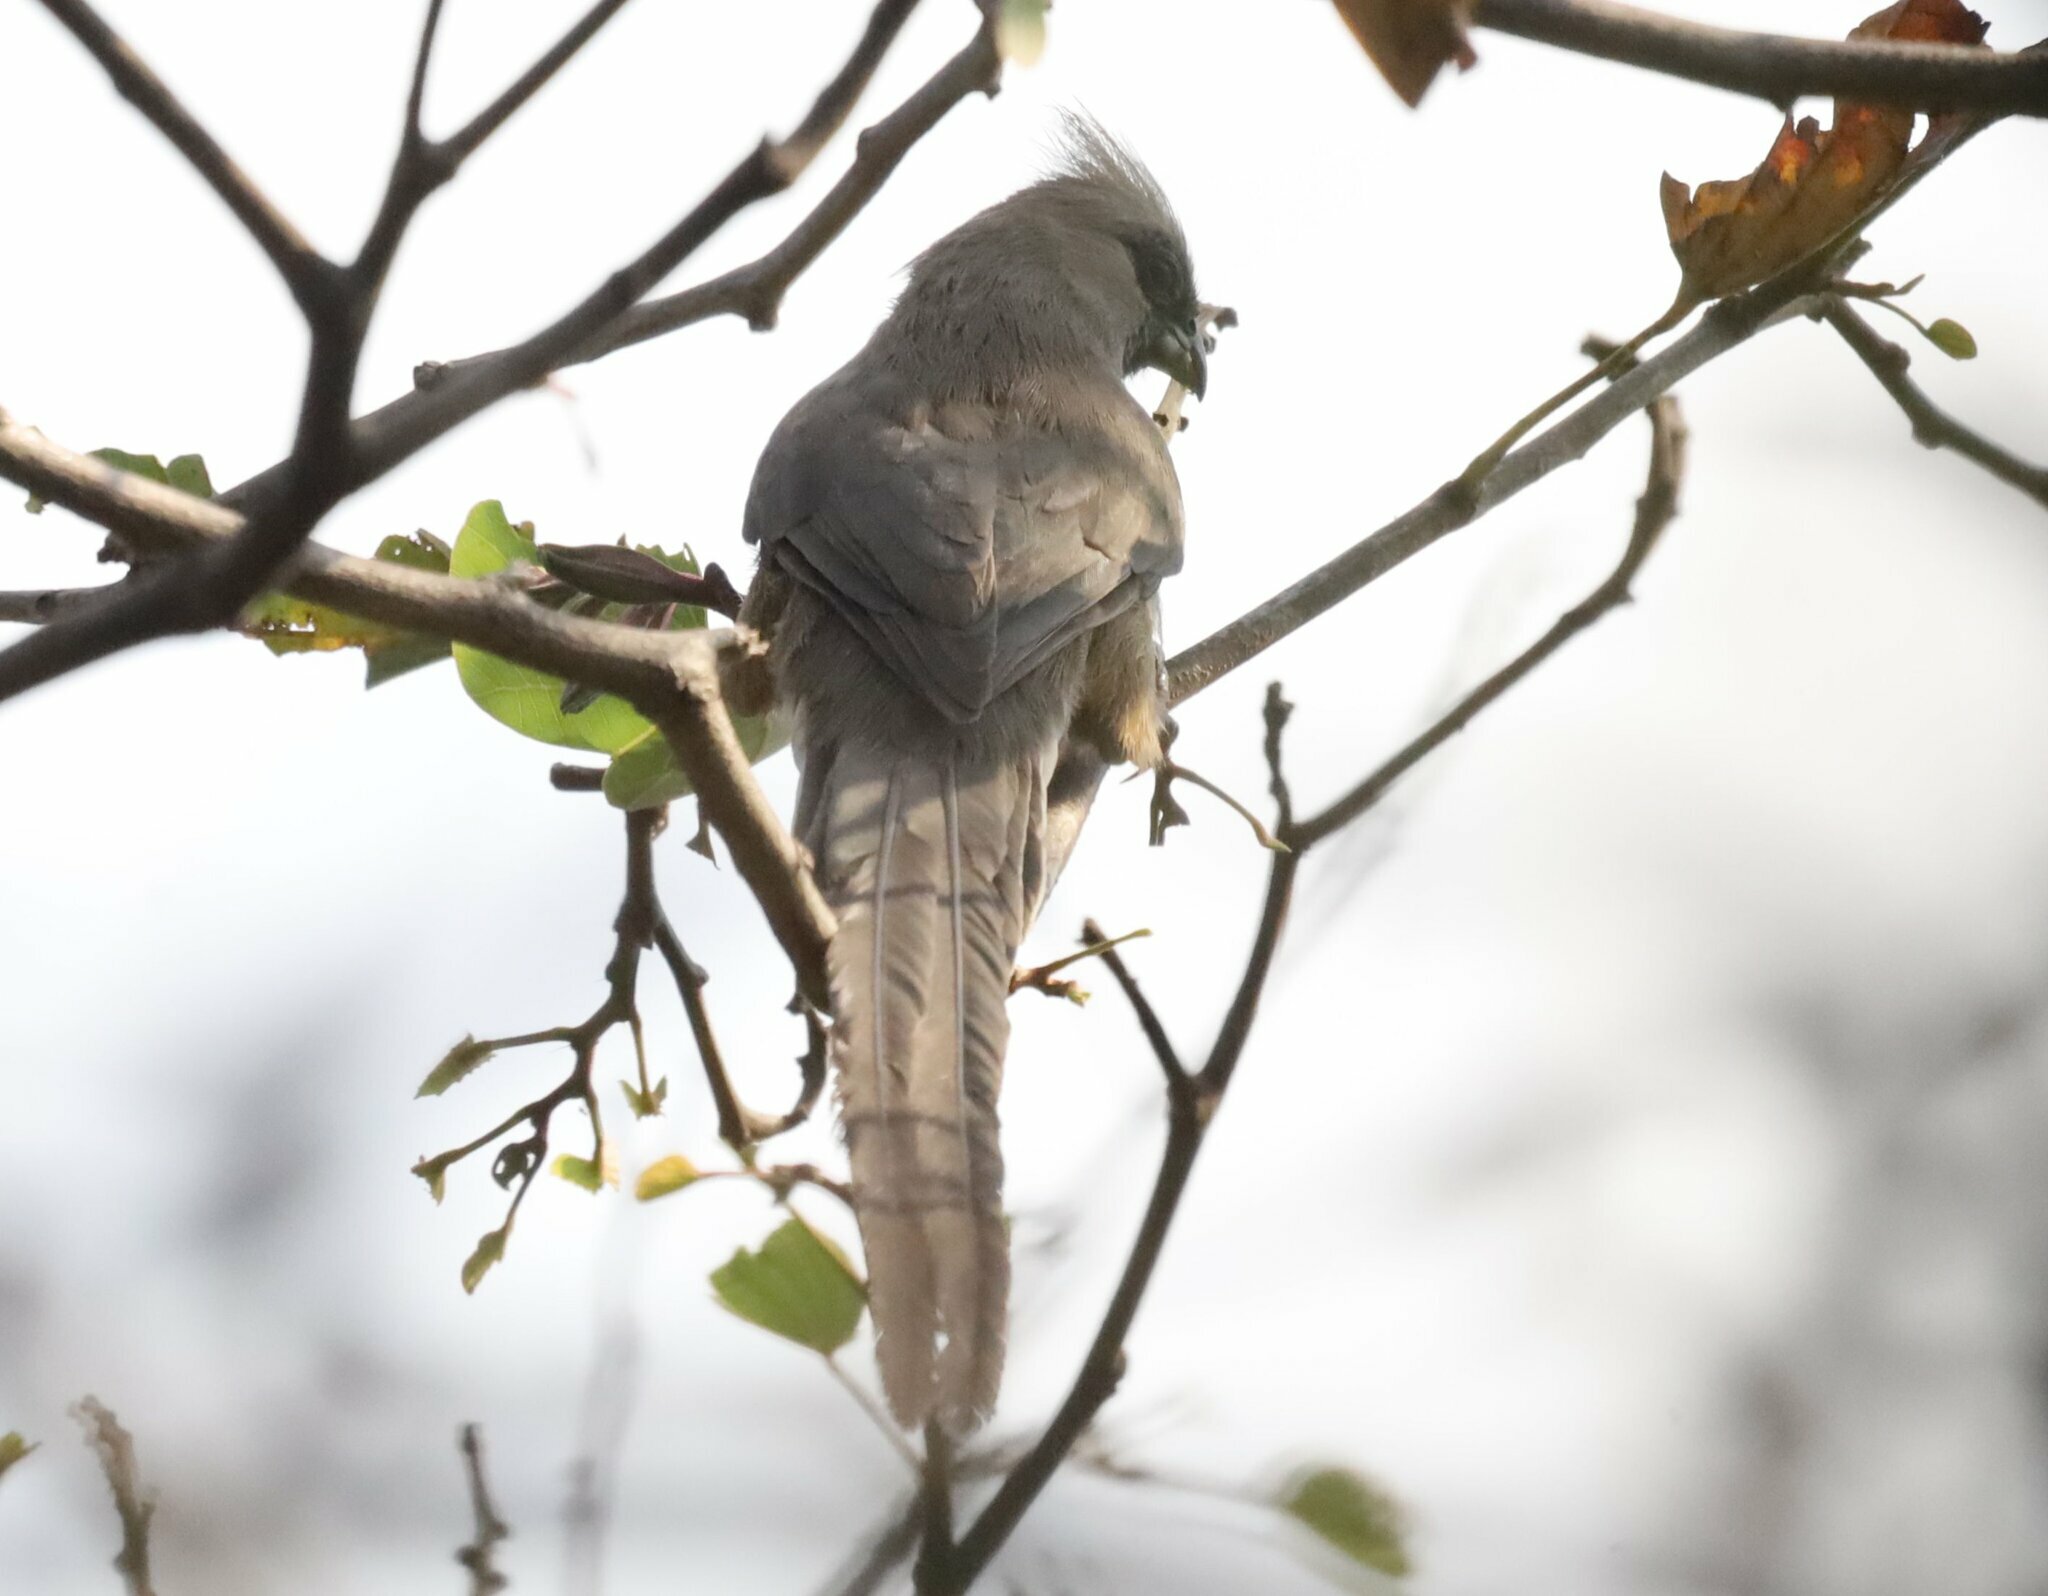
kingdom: Animalia
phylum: Chordata
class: Aves
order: Coliiformes
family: Coliidae
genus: Colius
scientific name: Colius striatus
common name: Speckled mousebird
